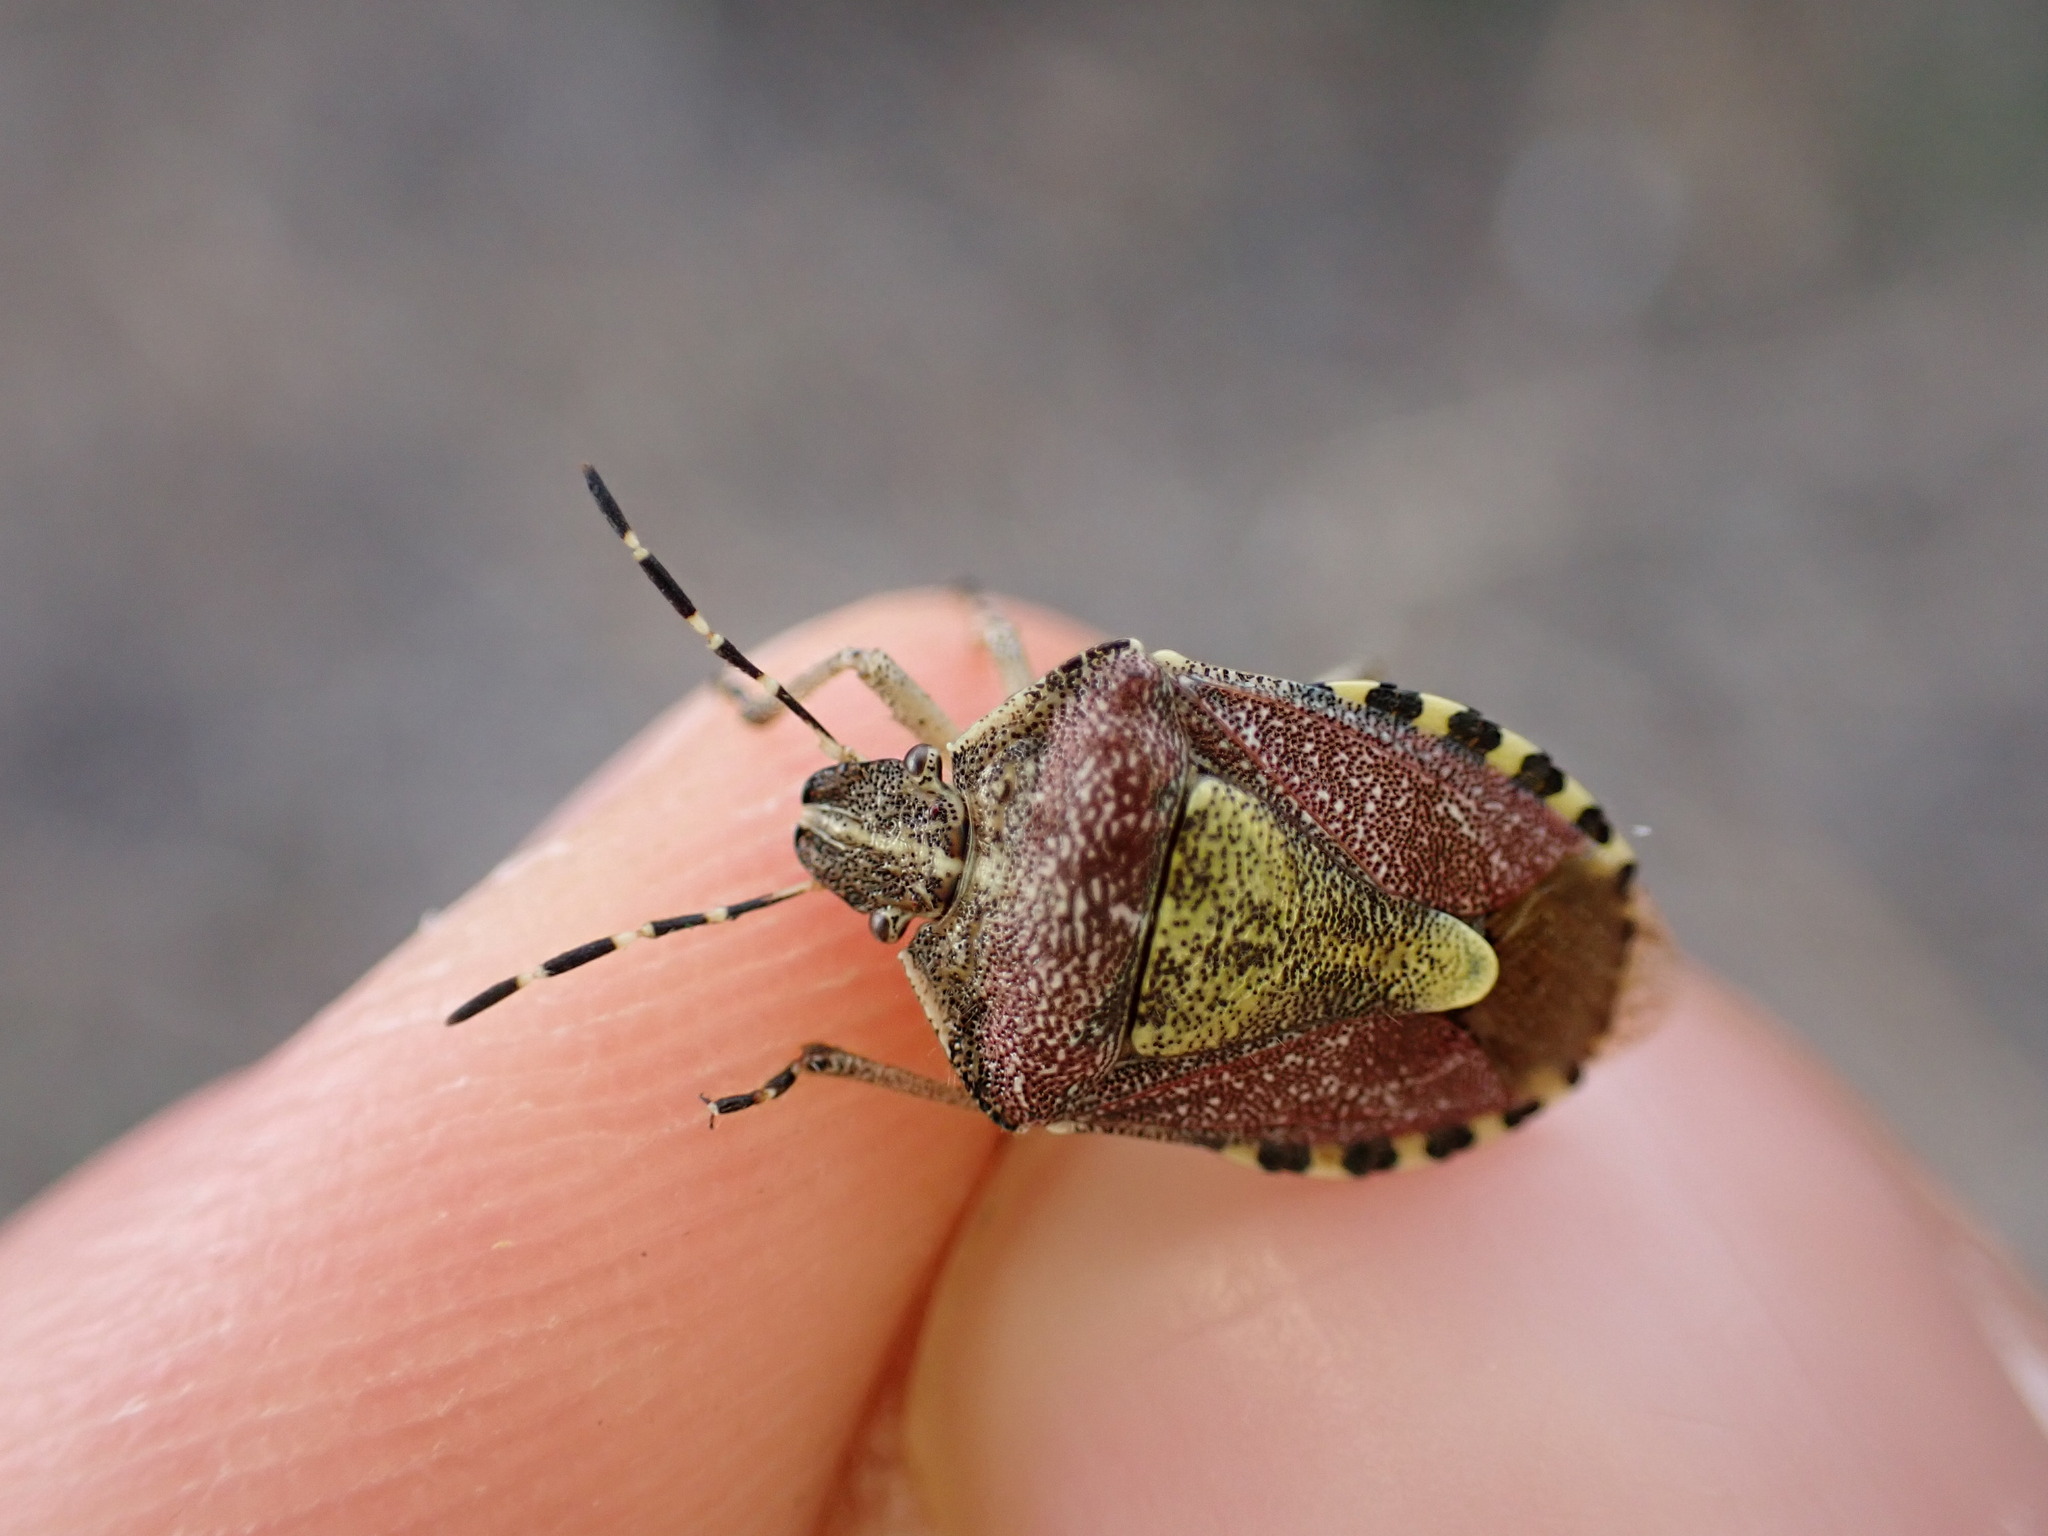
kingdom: Animalia
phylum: Arthropoda
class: Insecta
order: Hemiptera
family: Pentatomidae
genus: Dolycoris
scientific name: Dolycoris baccarum
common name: Sloe bug
